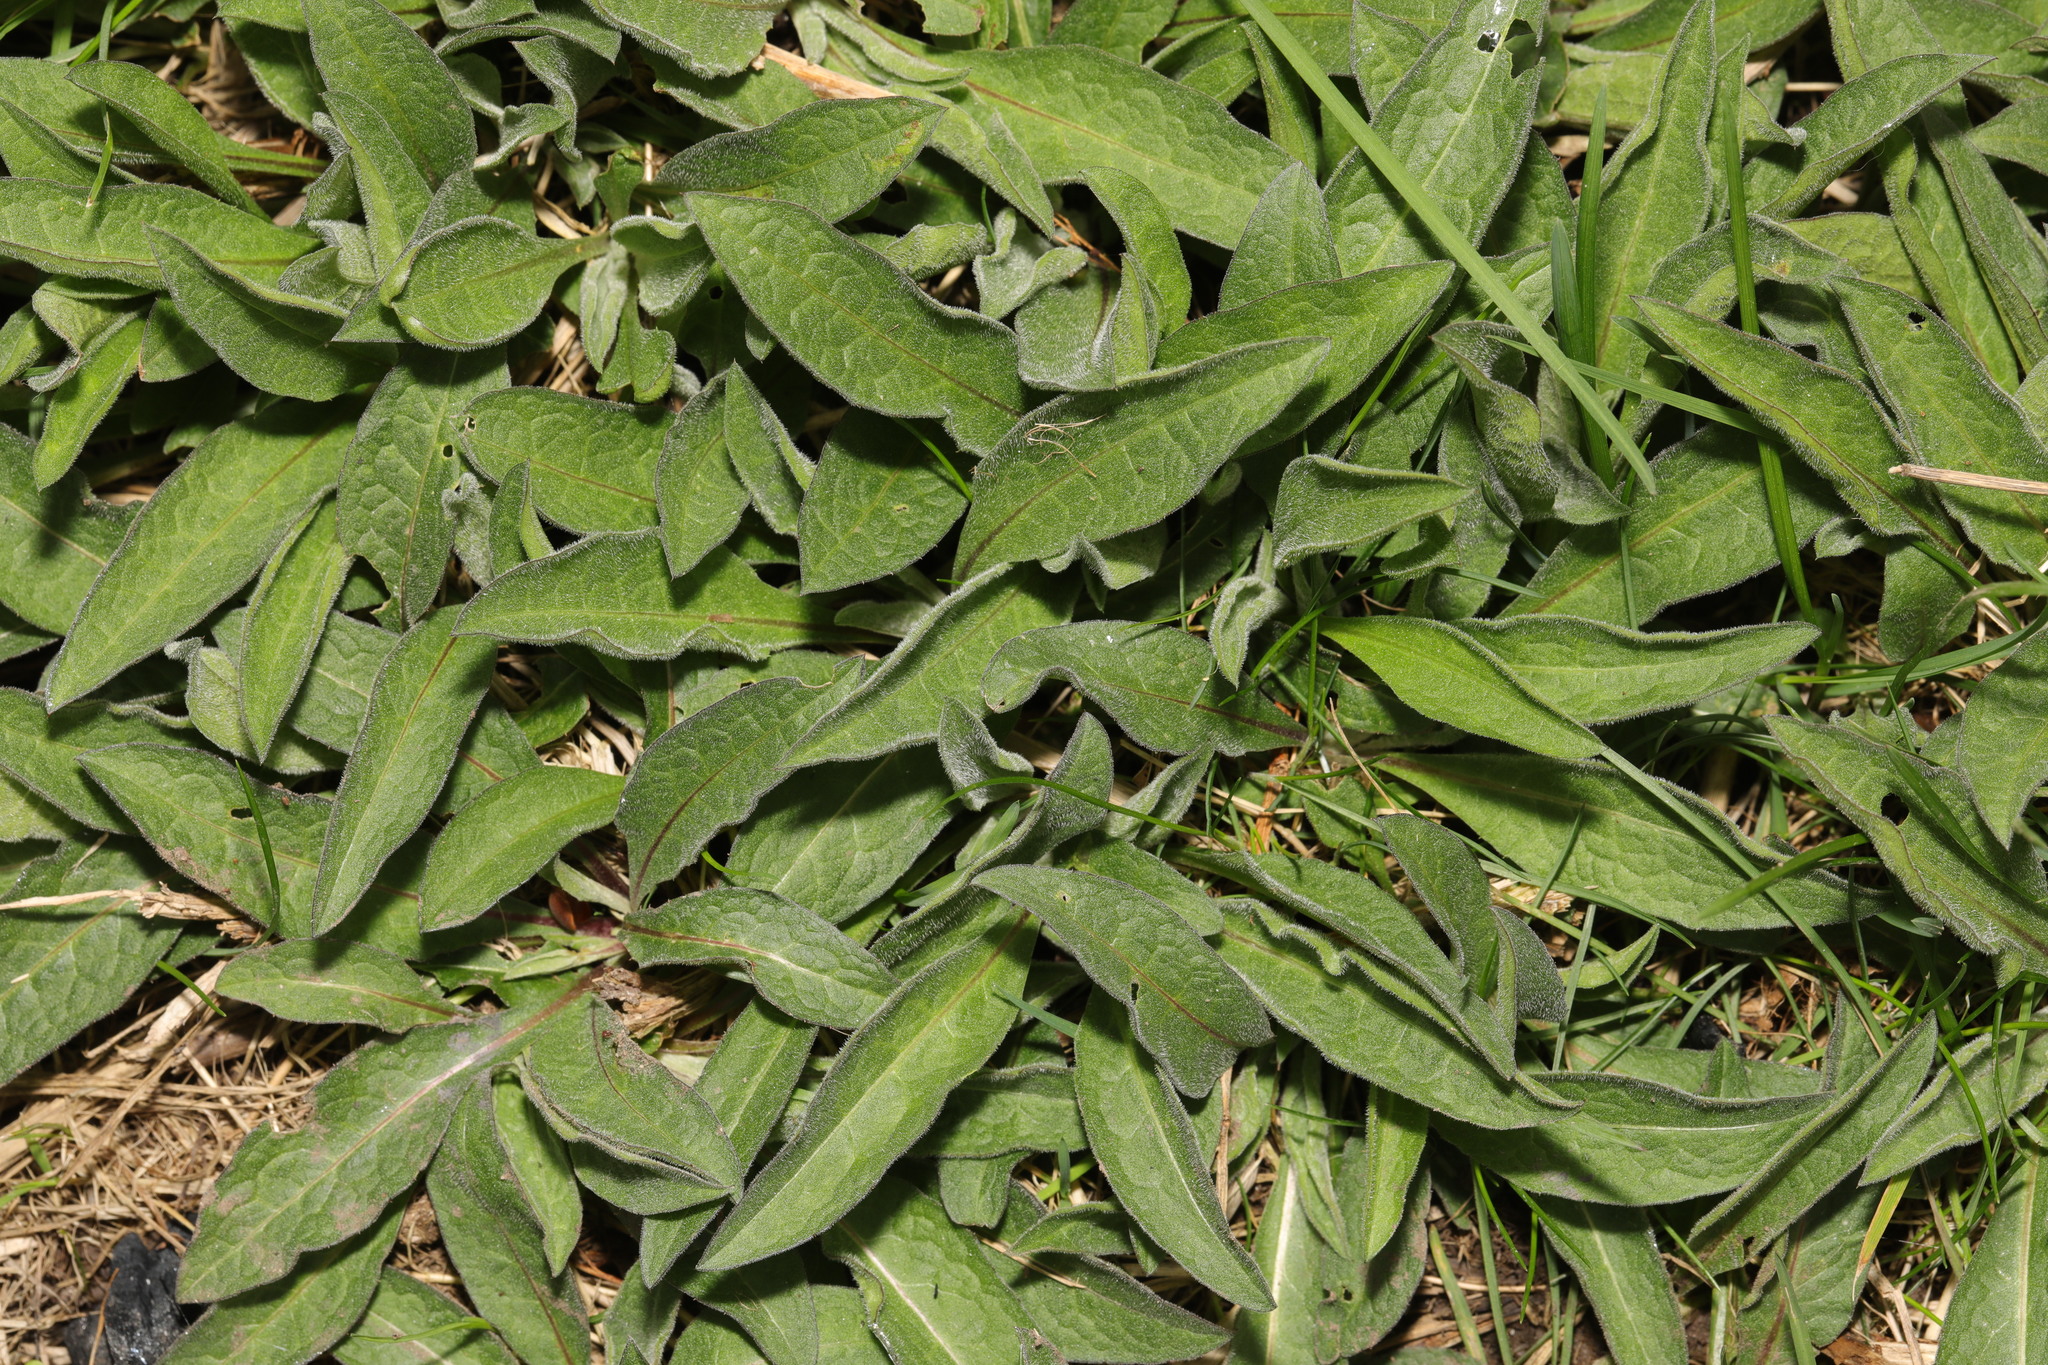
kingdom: Plantae
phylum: Tracheophyta
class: Magnoliopsida
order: Asterales
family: Asteraceae
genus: Centaurea
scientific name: Centaurea nigra
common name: Lesser knapweed
